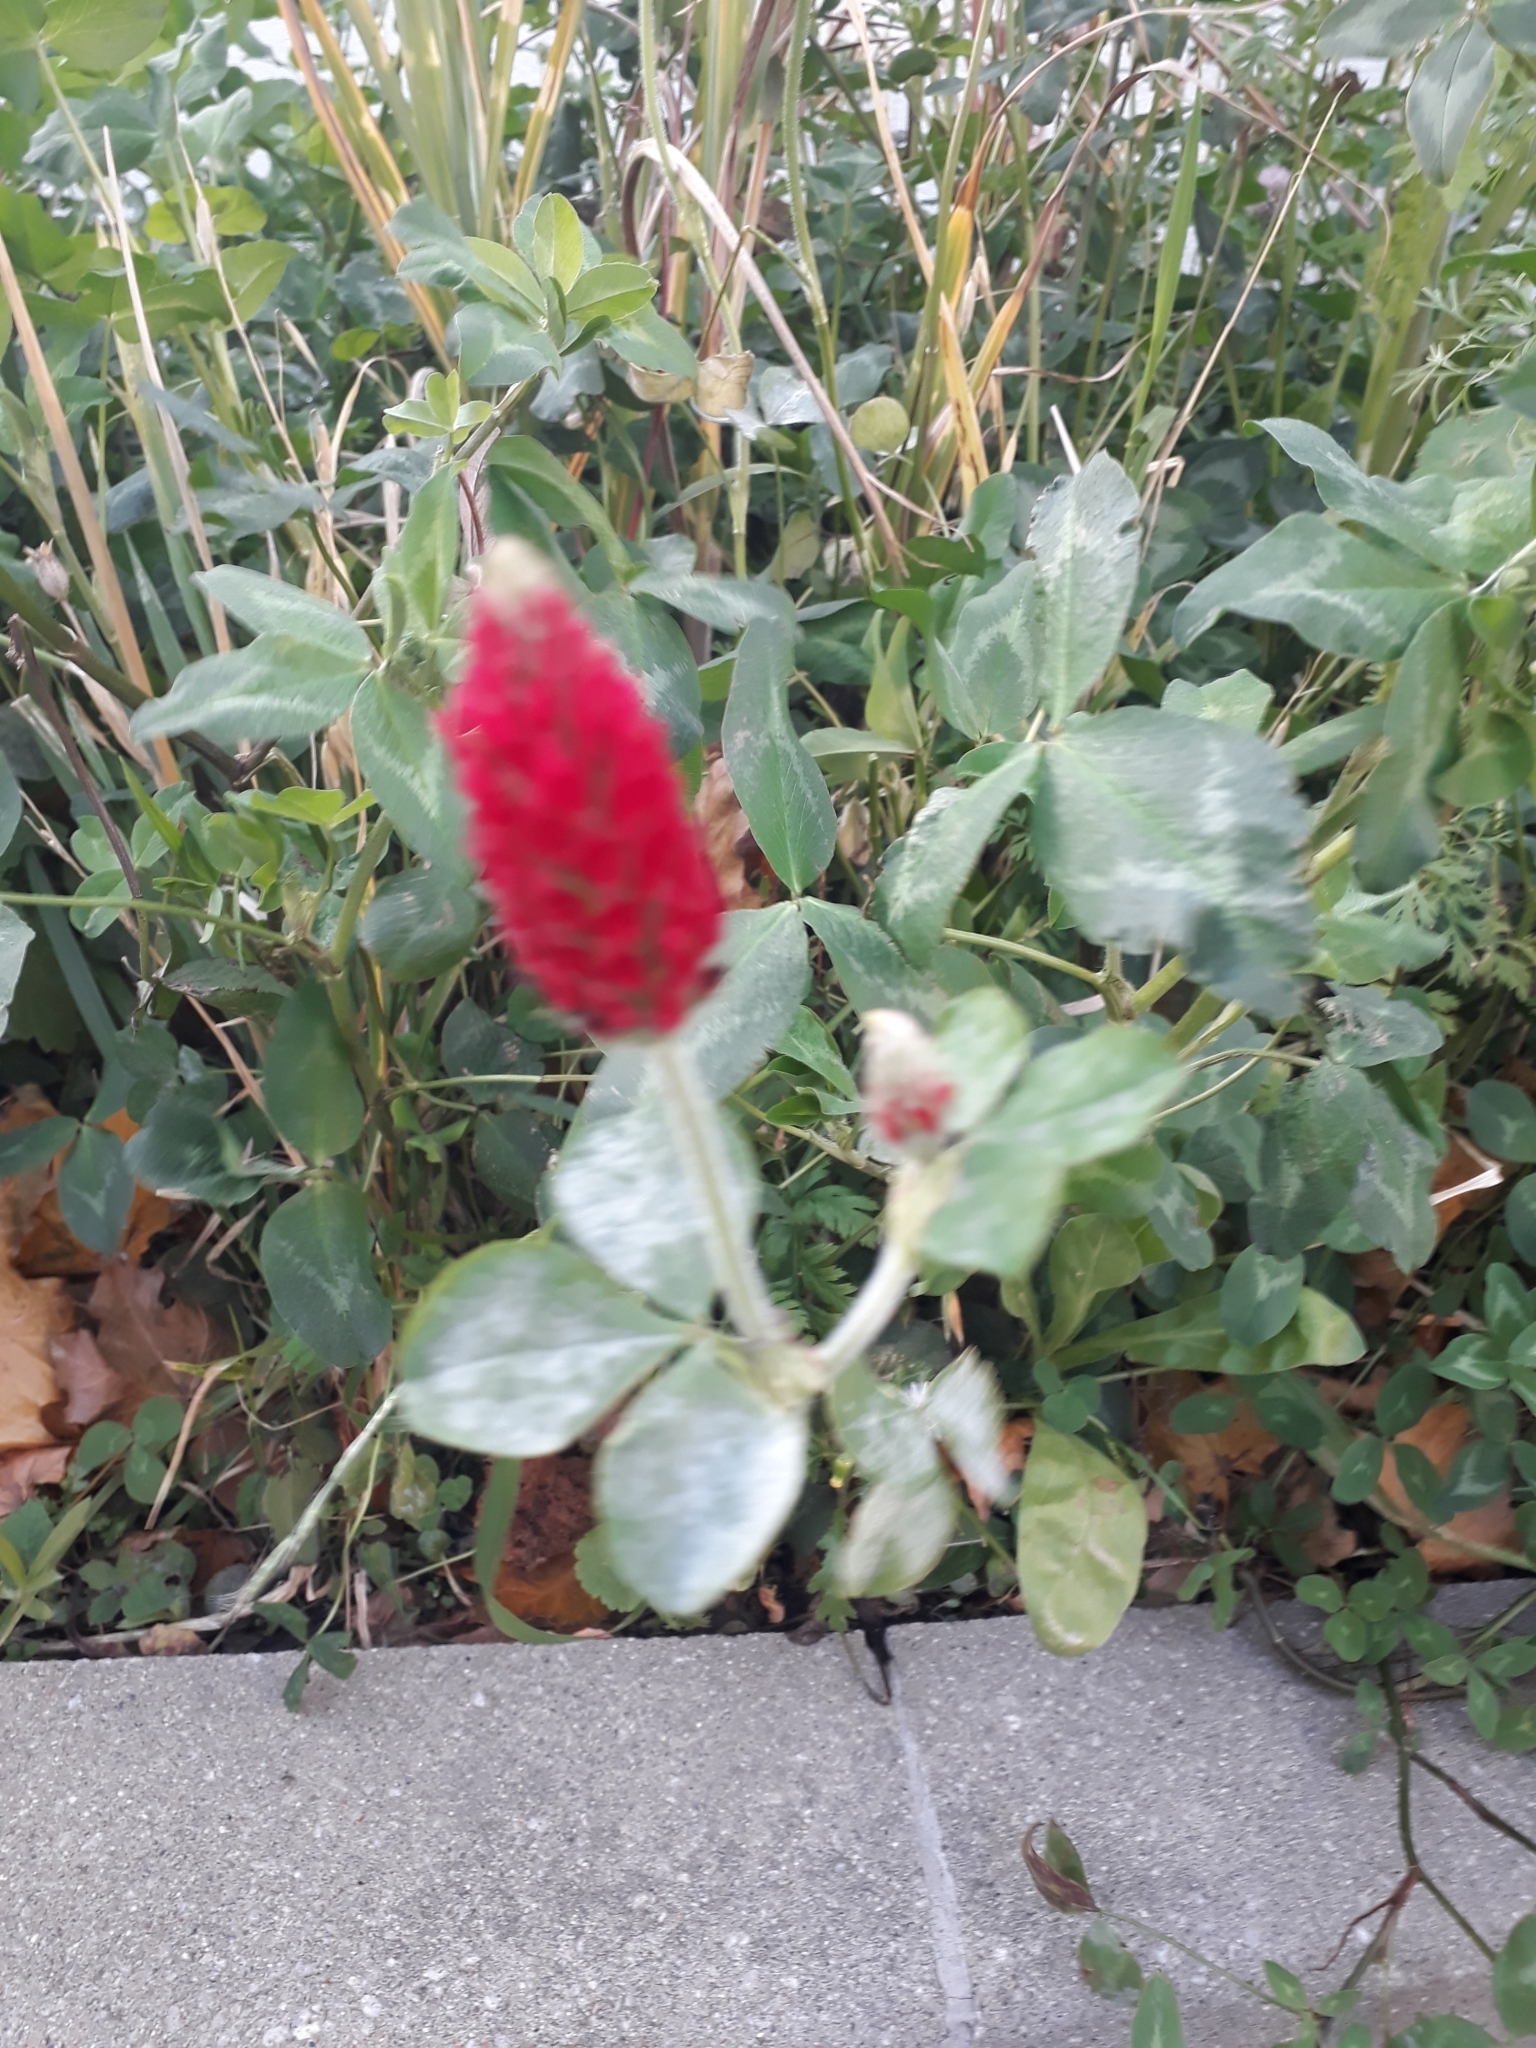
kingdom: Plantae
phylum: Tracheophyta
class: Magnoliopsida
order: Fabales
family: Fabaceae
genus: Trifolium
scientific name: Trifolium incarnatum
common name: Crimson clover
